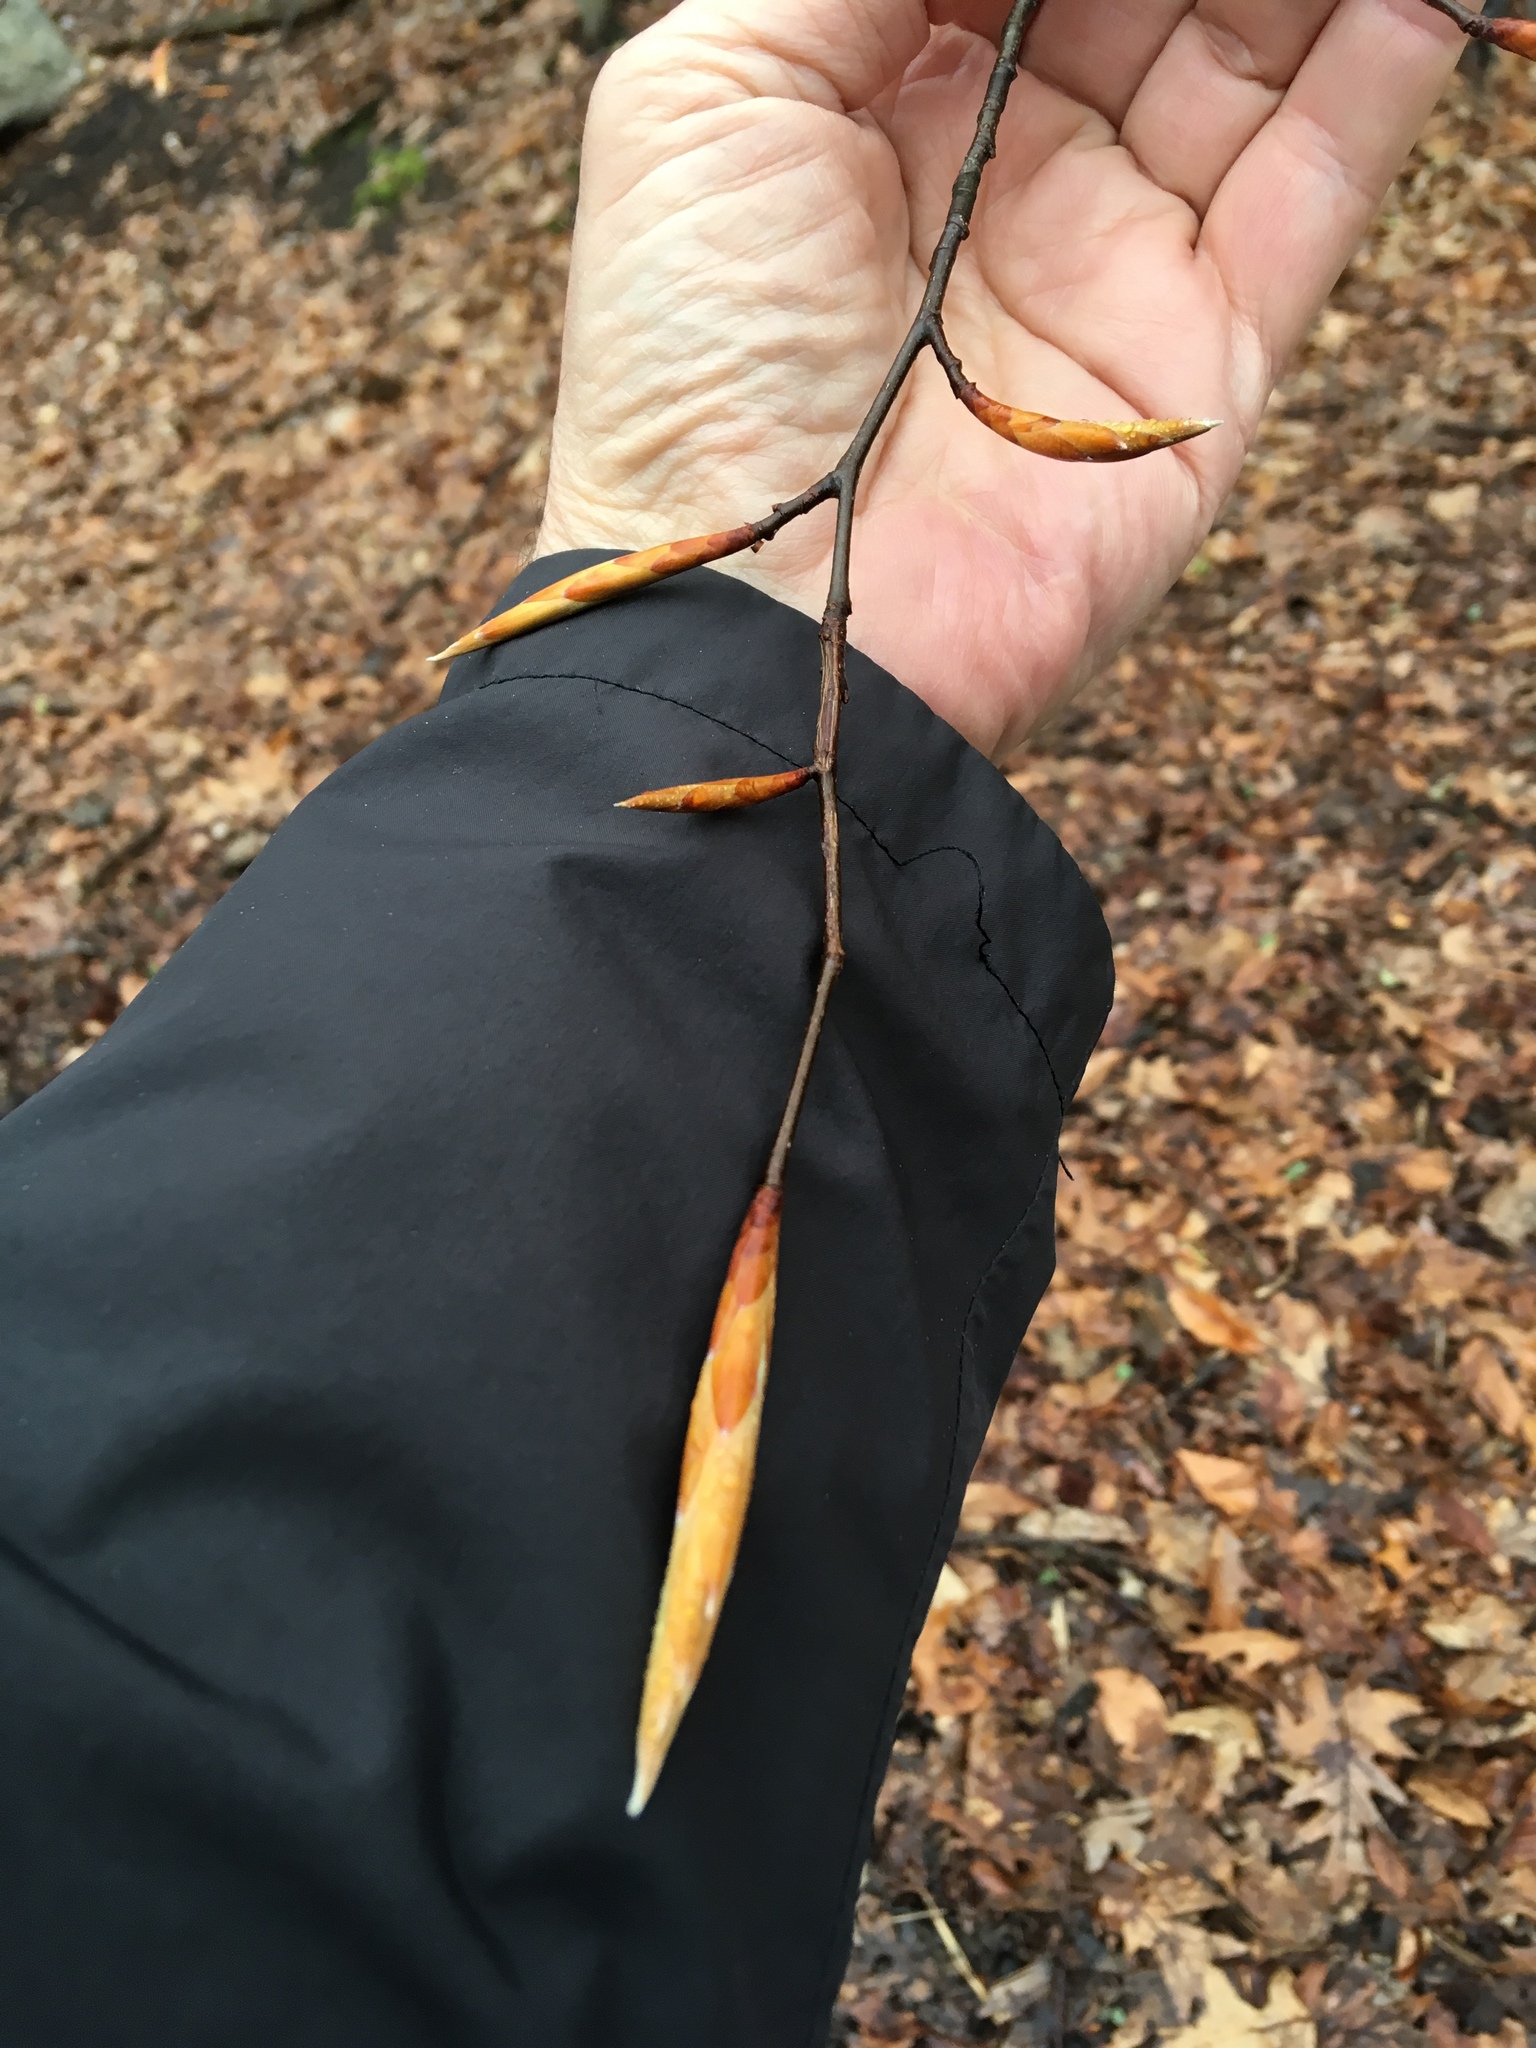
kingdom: Plantae
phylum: Tracheophyta
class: Magnoliopsida
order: Fagales
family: Fagaceae
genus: Fagus
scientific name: Fagus grandifolia
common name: American beech
